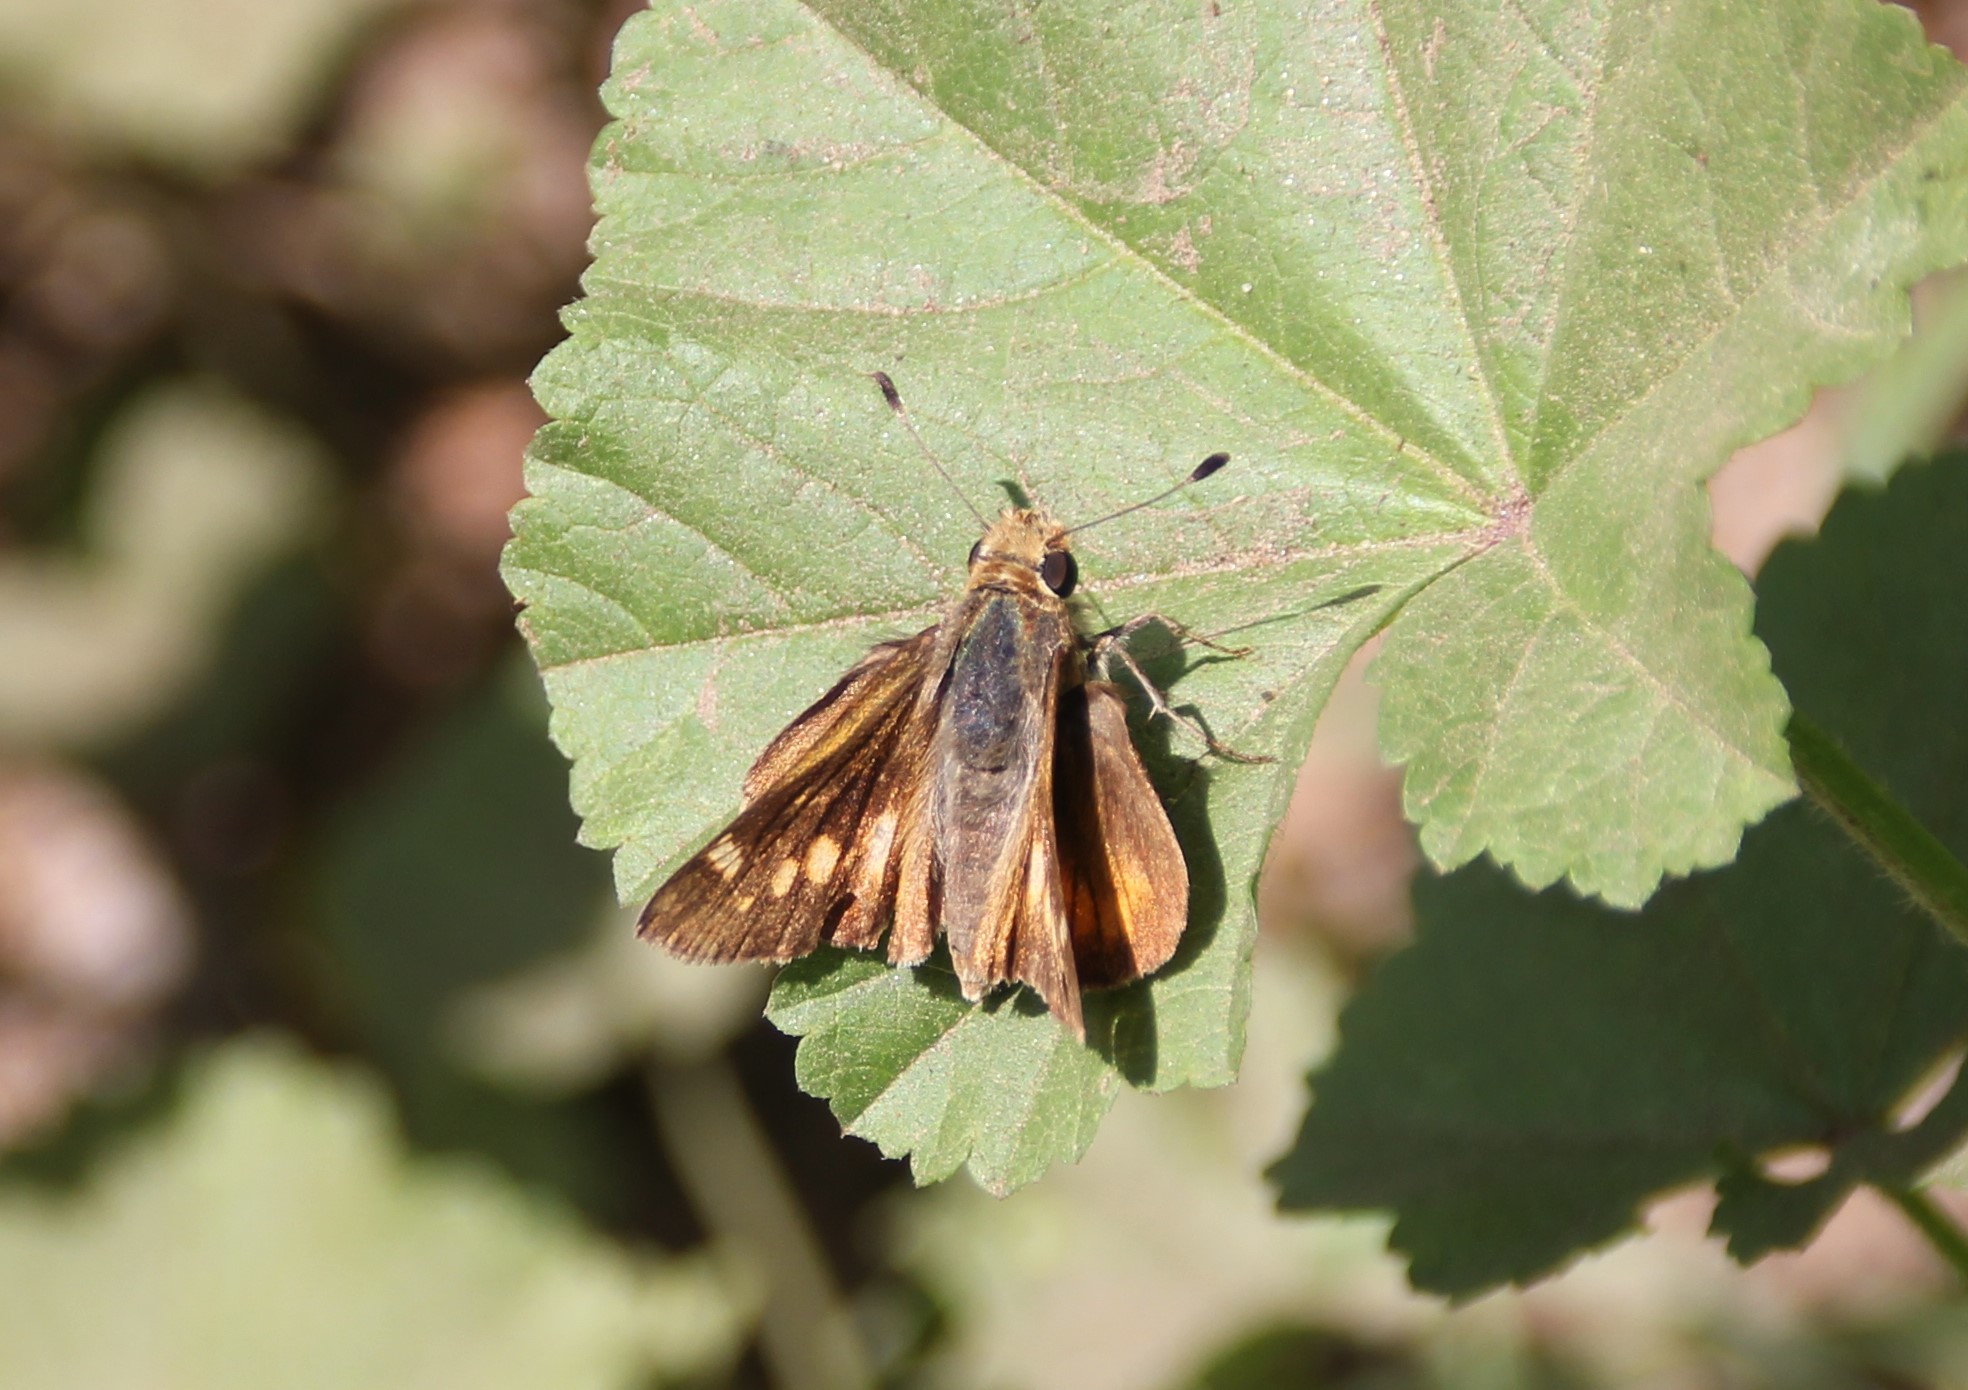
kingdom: Animalia
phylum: Arthropoda
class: Insecta
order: Lepidoptera
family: Hesperiidae
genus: Lon
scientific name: Lon melane
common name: Umber skipper
